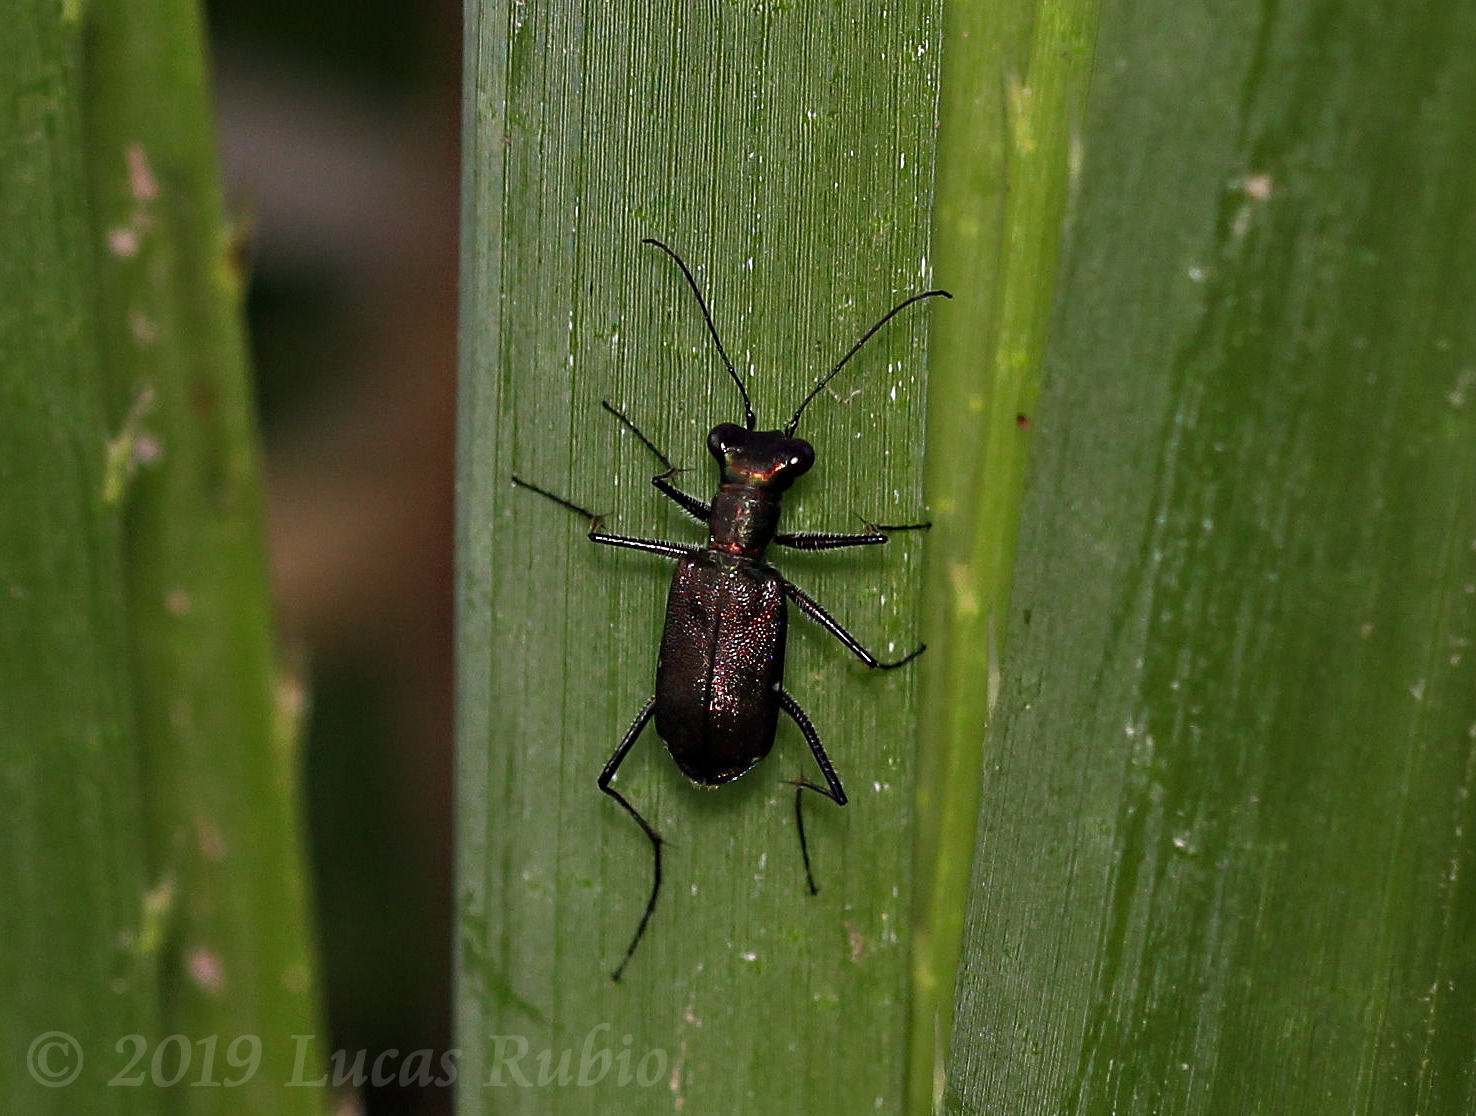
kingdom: Animalia
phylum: Arthropoda
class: Insecta
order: Coleoptera
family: Carabidae
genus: Odontocheila
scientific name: Odontocheila chrysis
